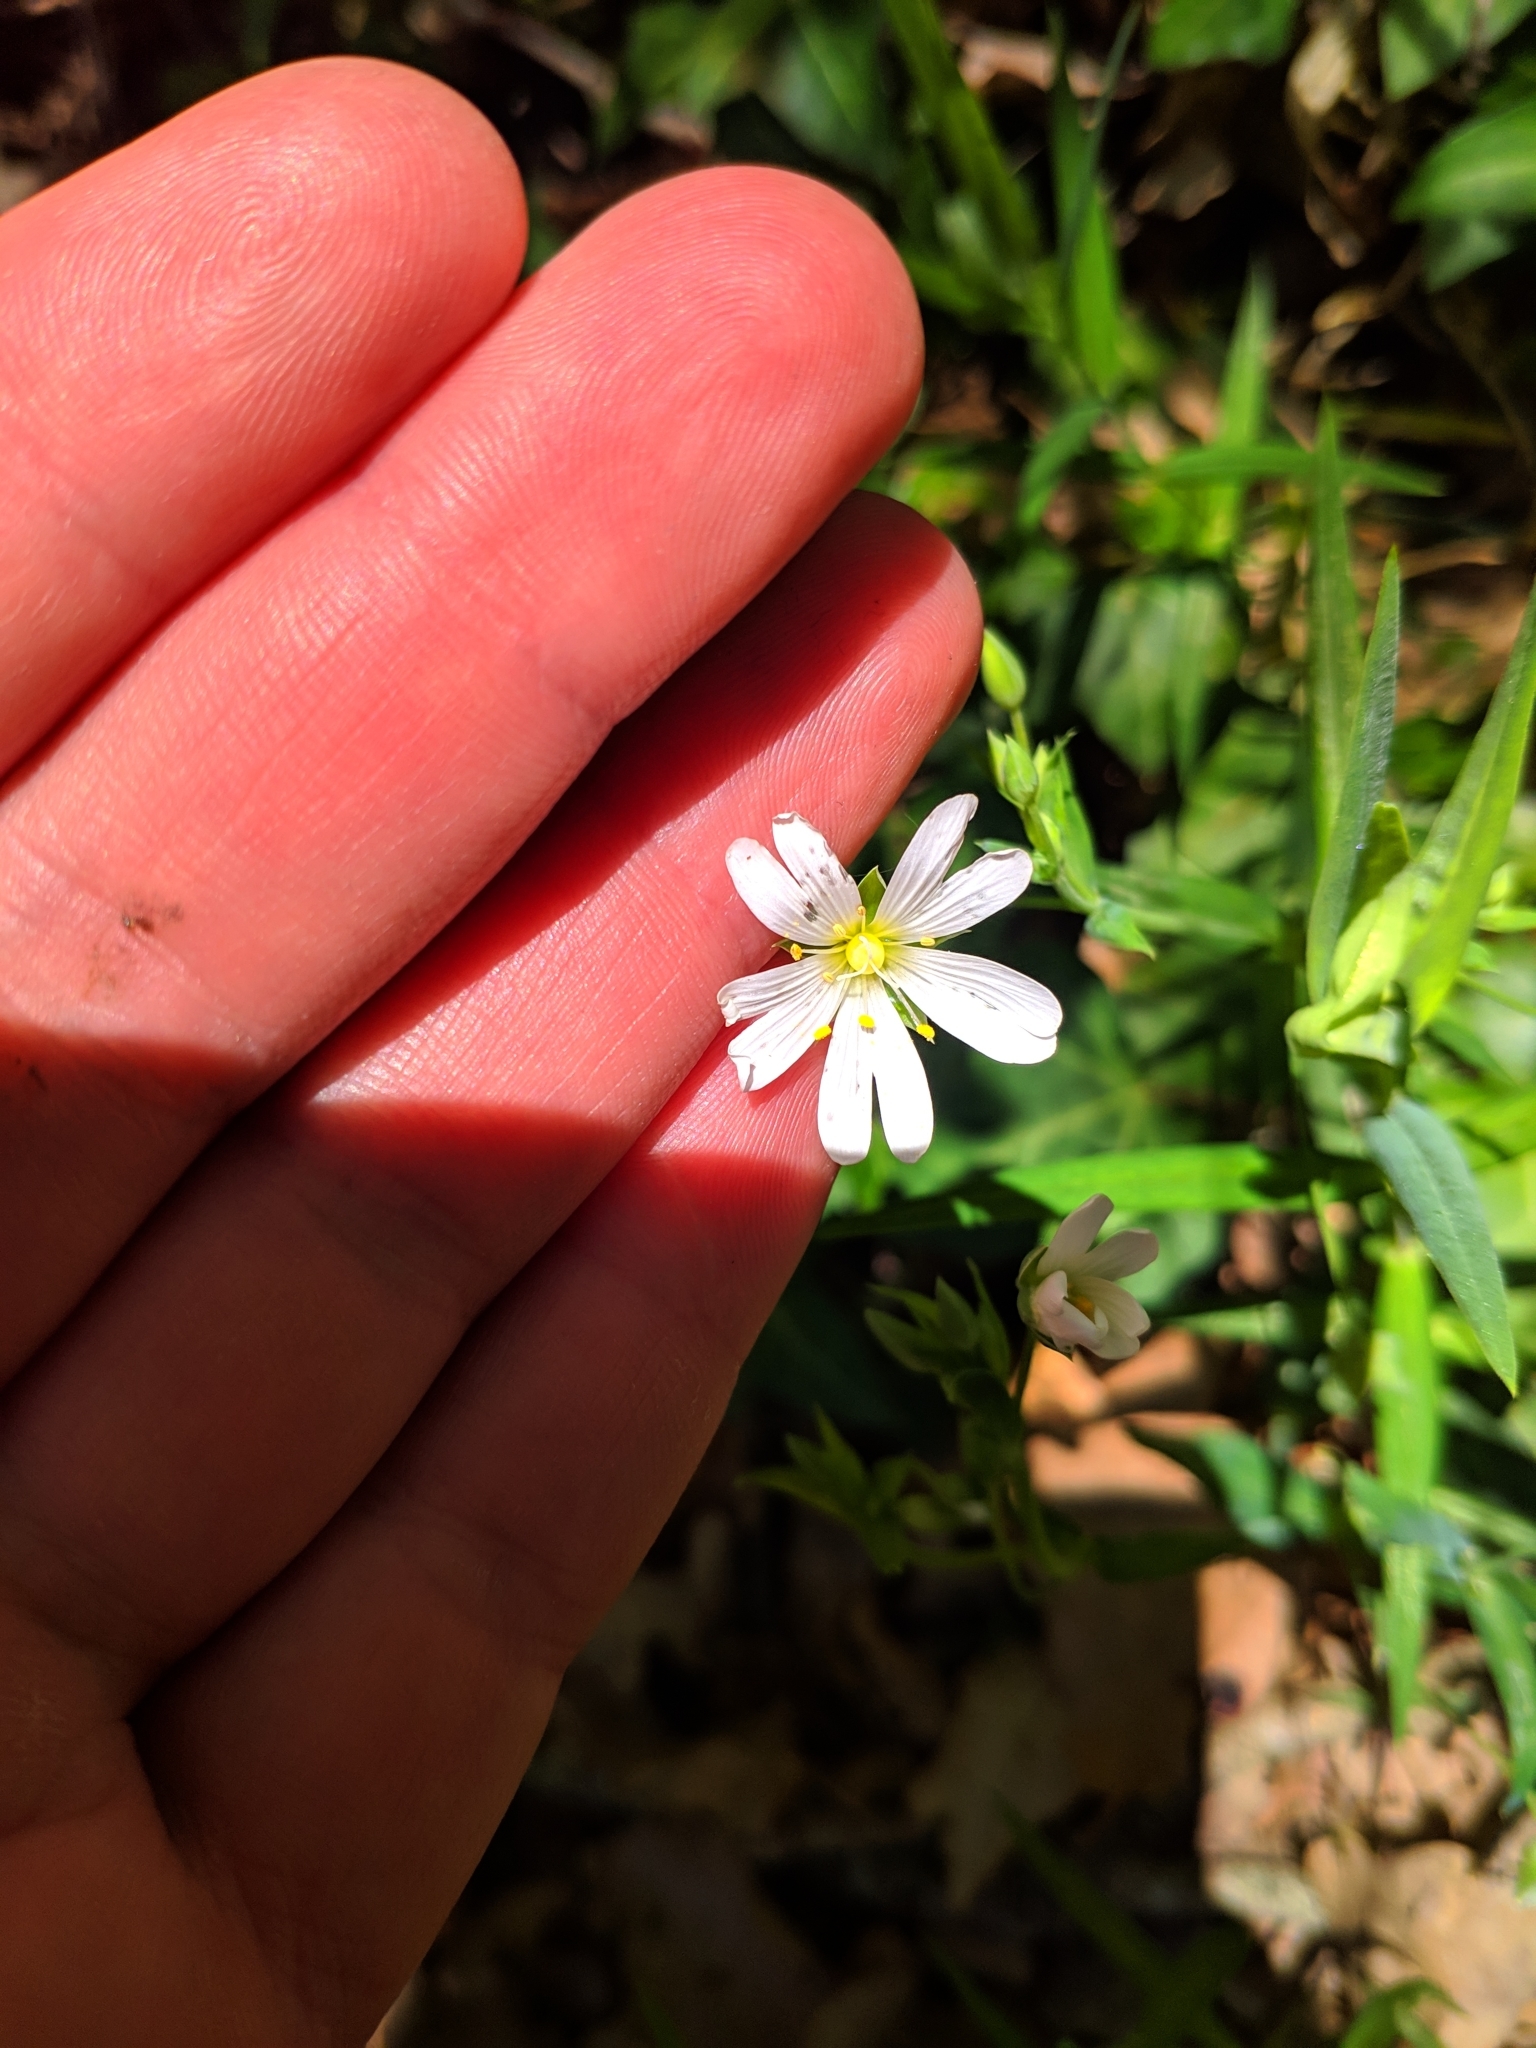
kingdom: Plantae
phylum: Tracheophyta
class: Magnoliopsida
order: Caryophyllales
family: Caryophyllaceae
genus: Rabelera
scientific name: Rabelera holostea
